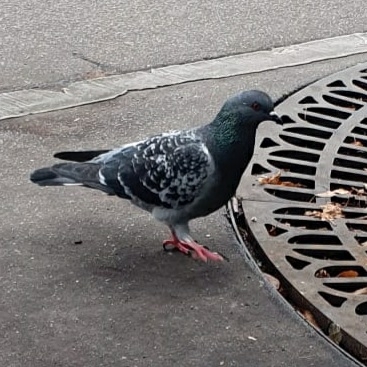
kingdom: Animalia
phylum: Chordata
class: Aves
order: Columbiformes
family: Columbidae
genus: Columba
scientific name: Columba livia
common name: Rock pigeon
